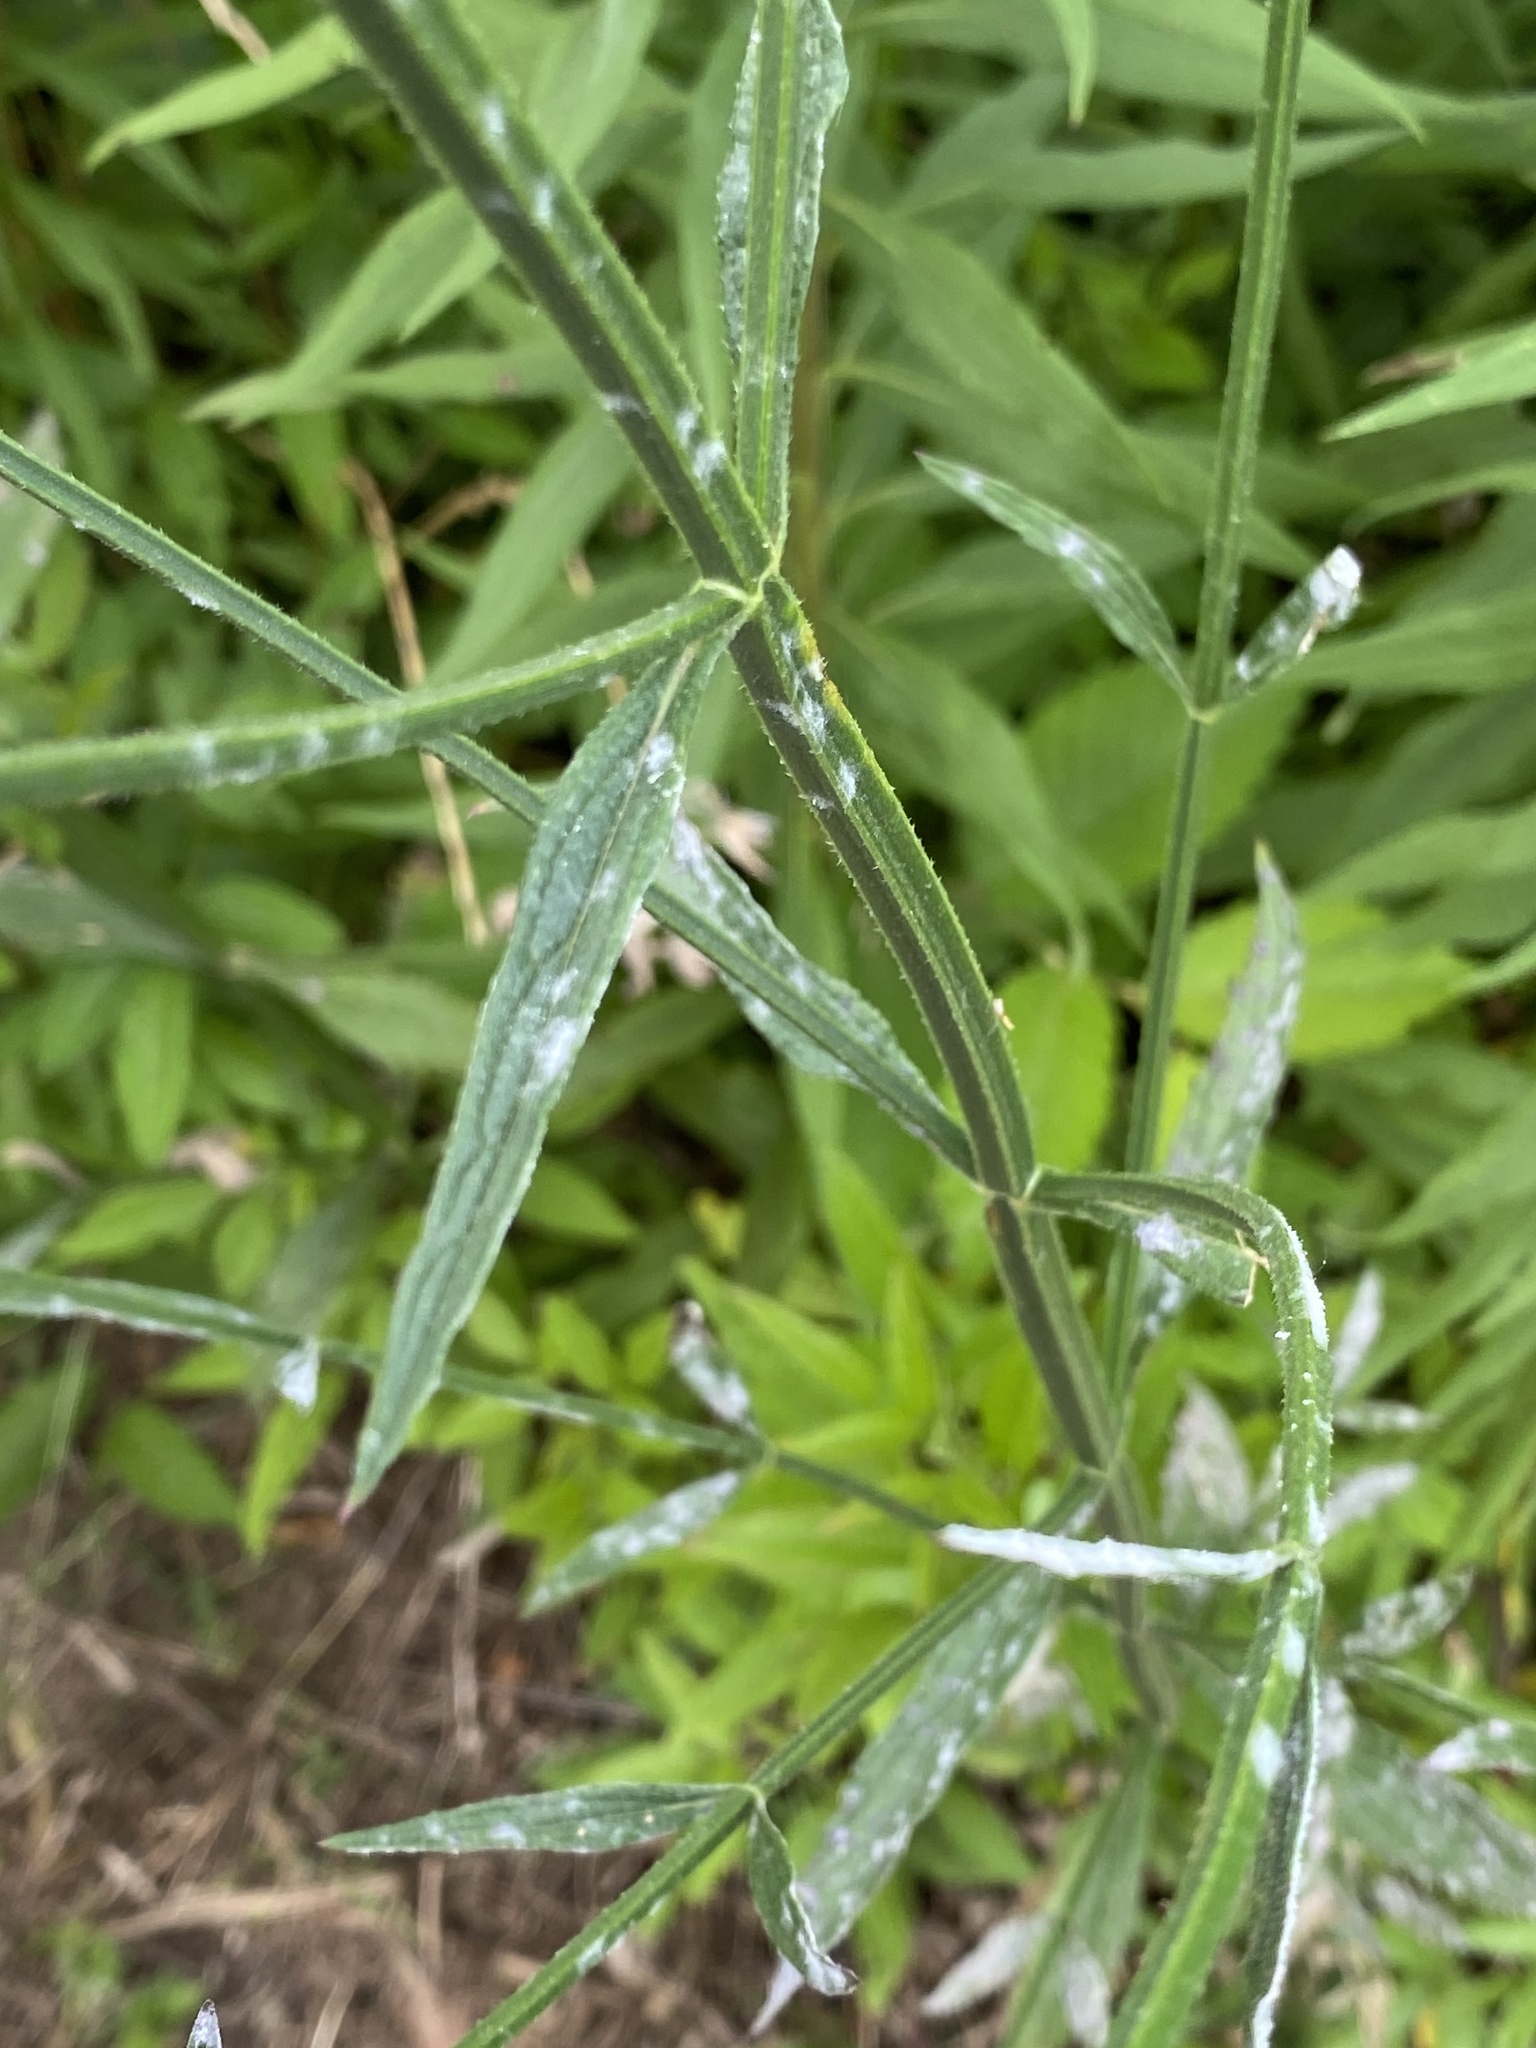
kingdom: Plantae
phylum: Tracheophyta
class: Magnoliopsida
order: Lamiales
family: Verbenaceae
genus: Verbena
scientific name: Verbena brasiliensis
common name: Brazilian vervain
